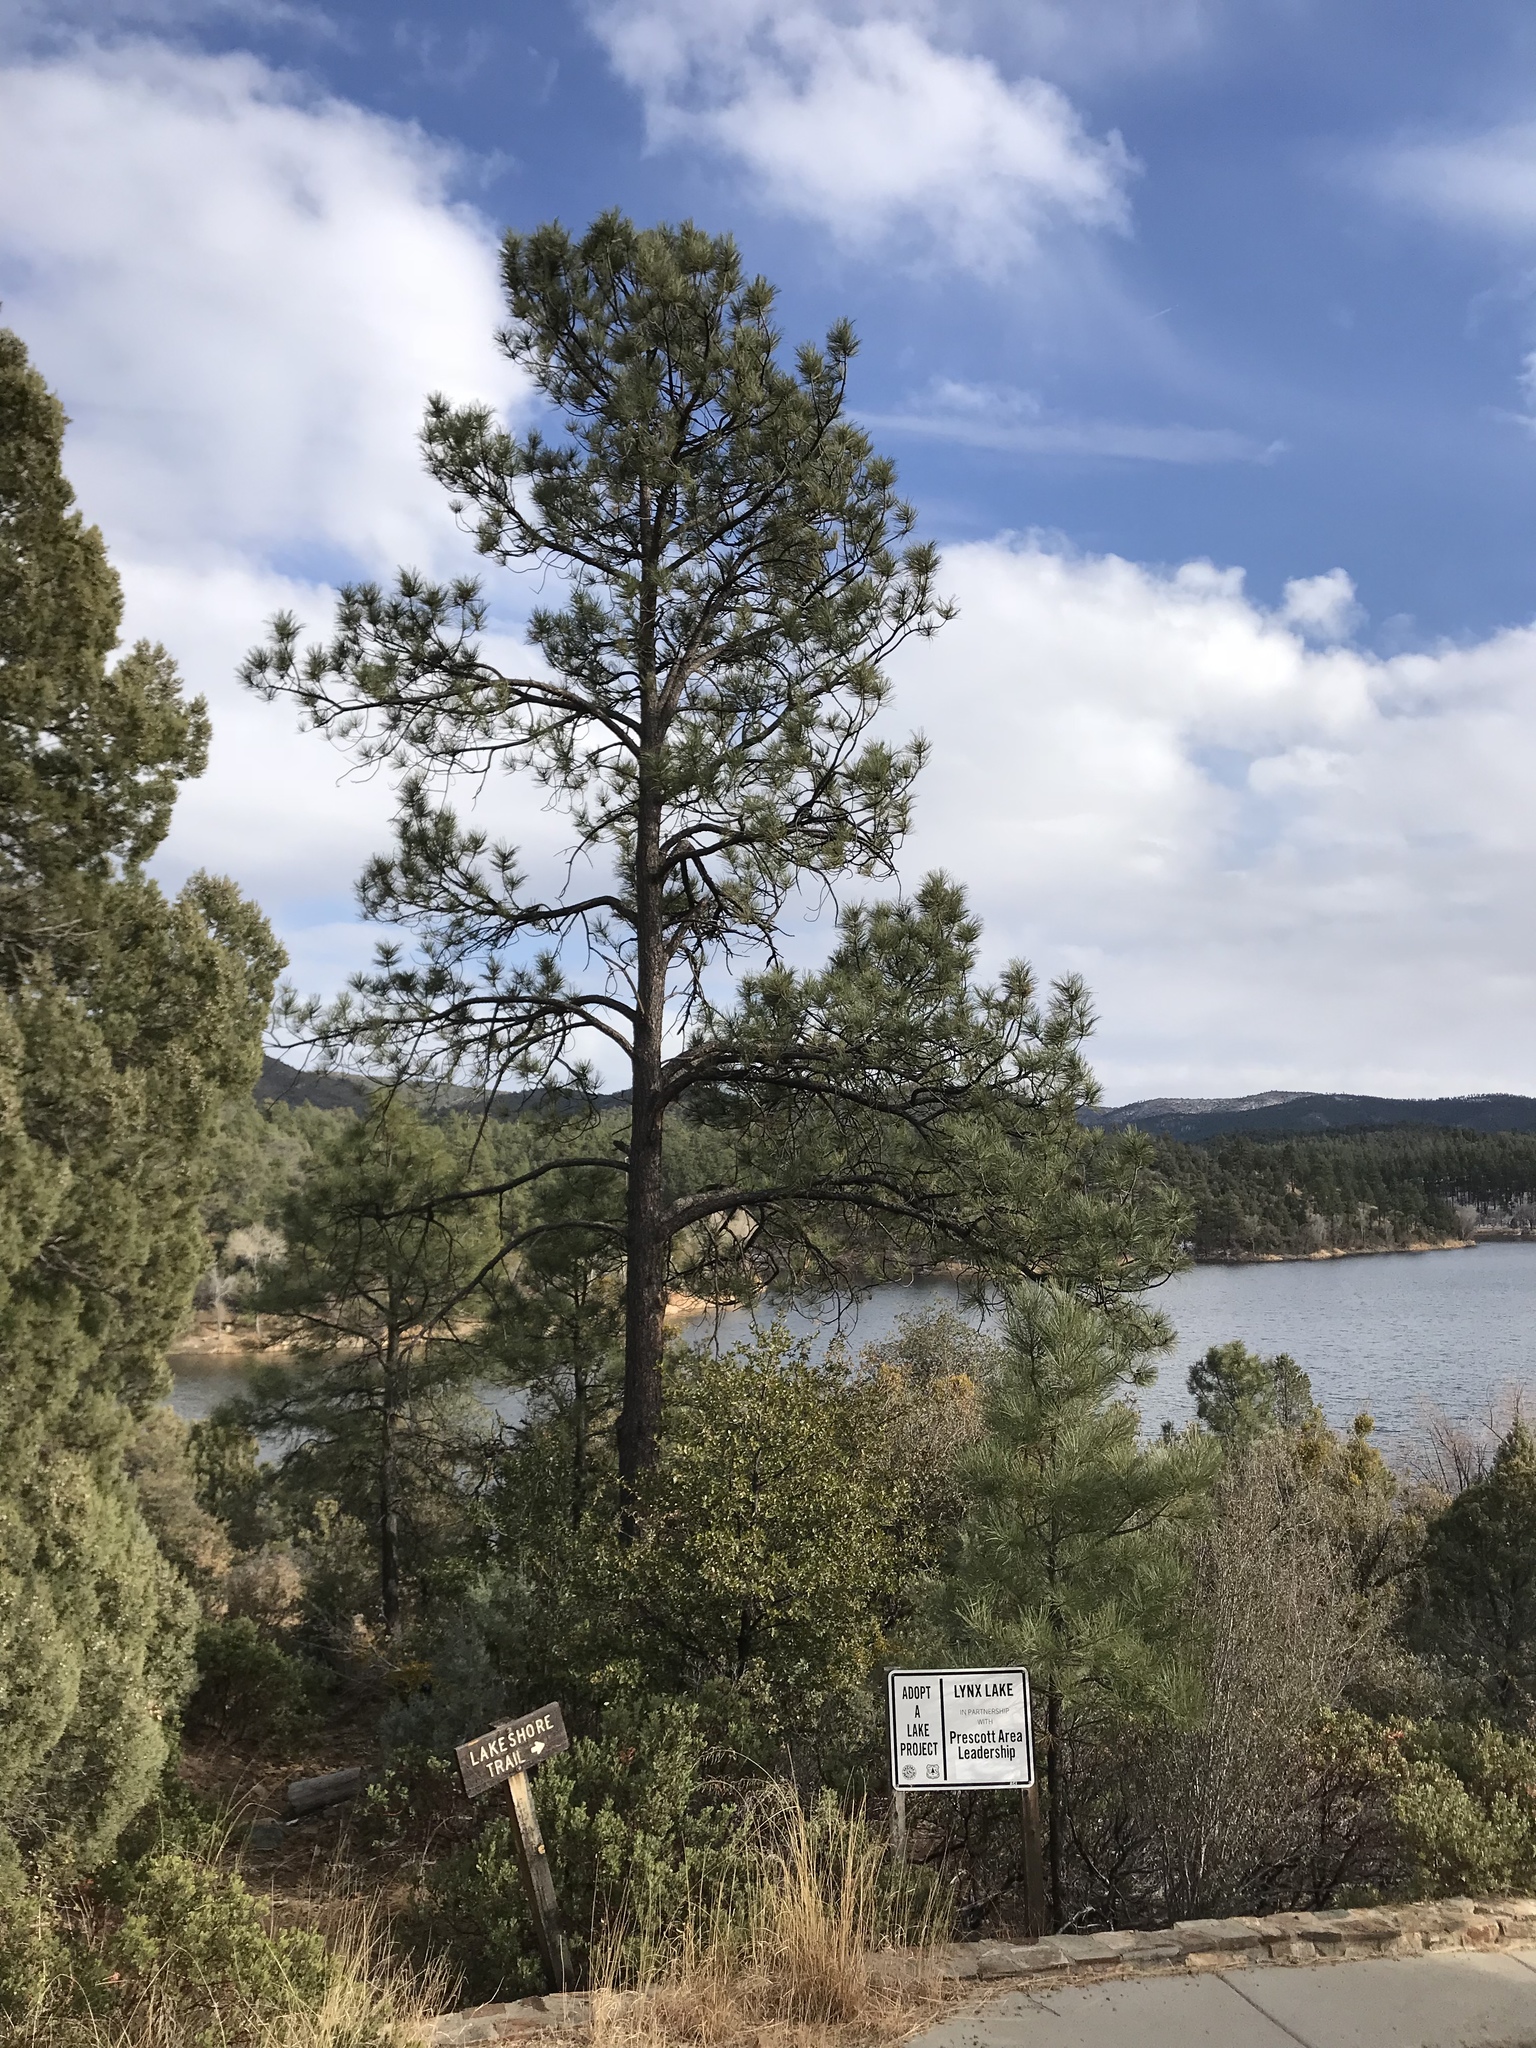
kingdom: Plantae
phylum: Tracheophyta
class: Pinopsida
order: Pinales
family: Pinaceae
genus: Pinus
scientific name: Pinus ponderosa
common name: Western yellow-pine
